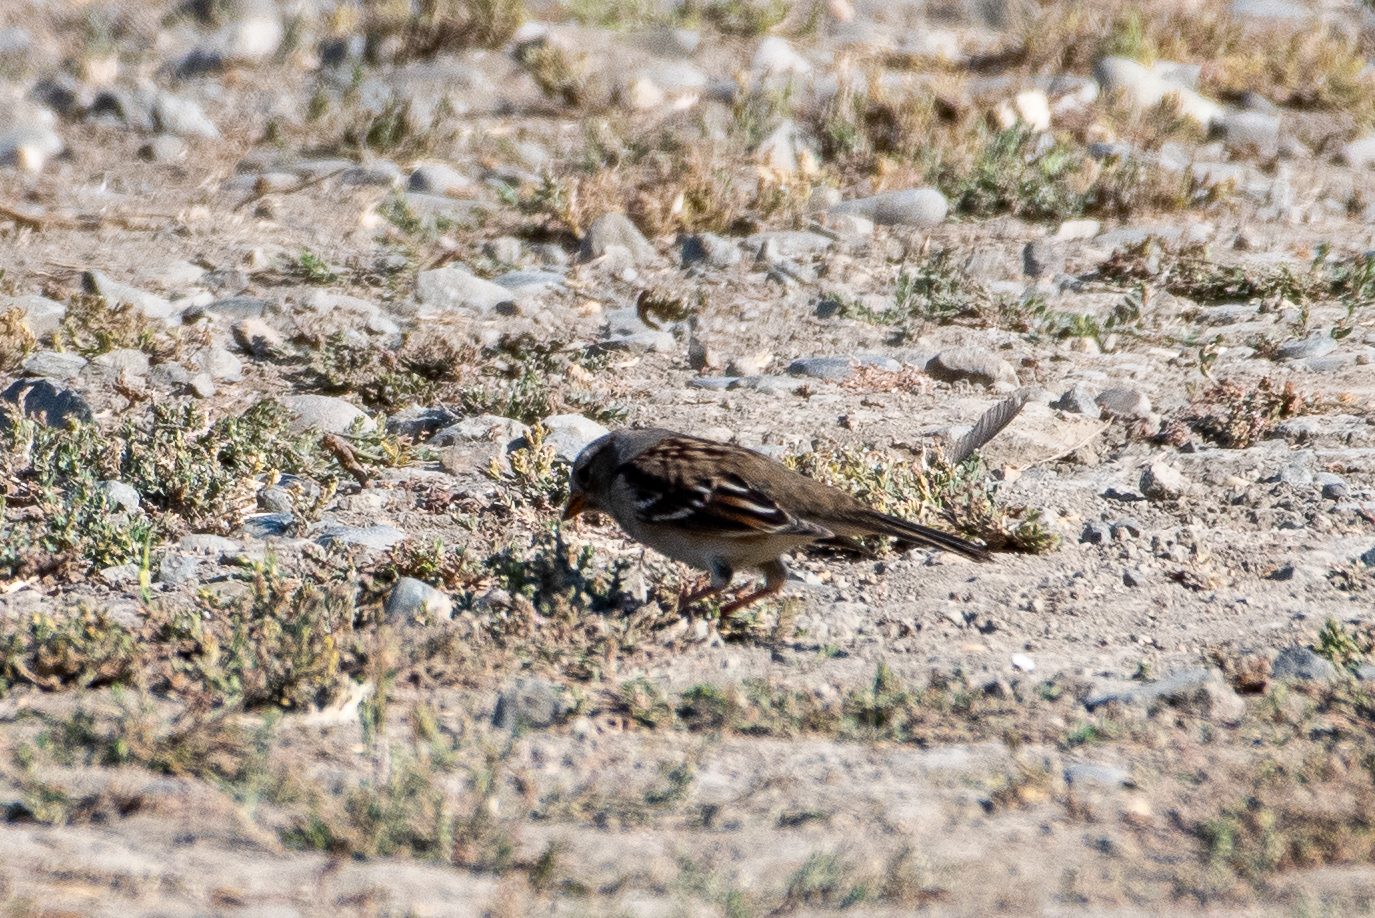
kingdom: Animalia
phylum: Chordata
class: Aves
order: Passeriformes
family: Passerellidae
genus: Zonotrichia
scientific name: Zonotrichia leucophrys
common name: White-crowned sparrow
